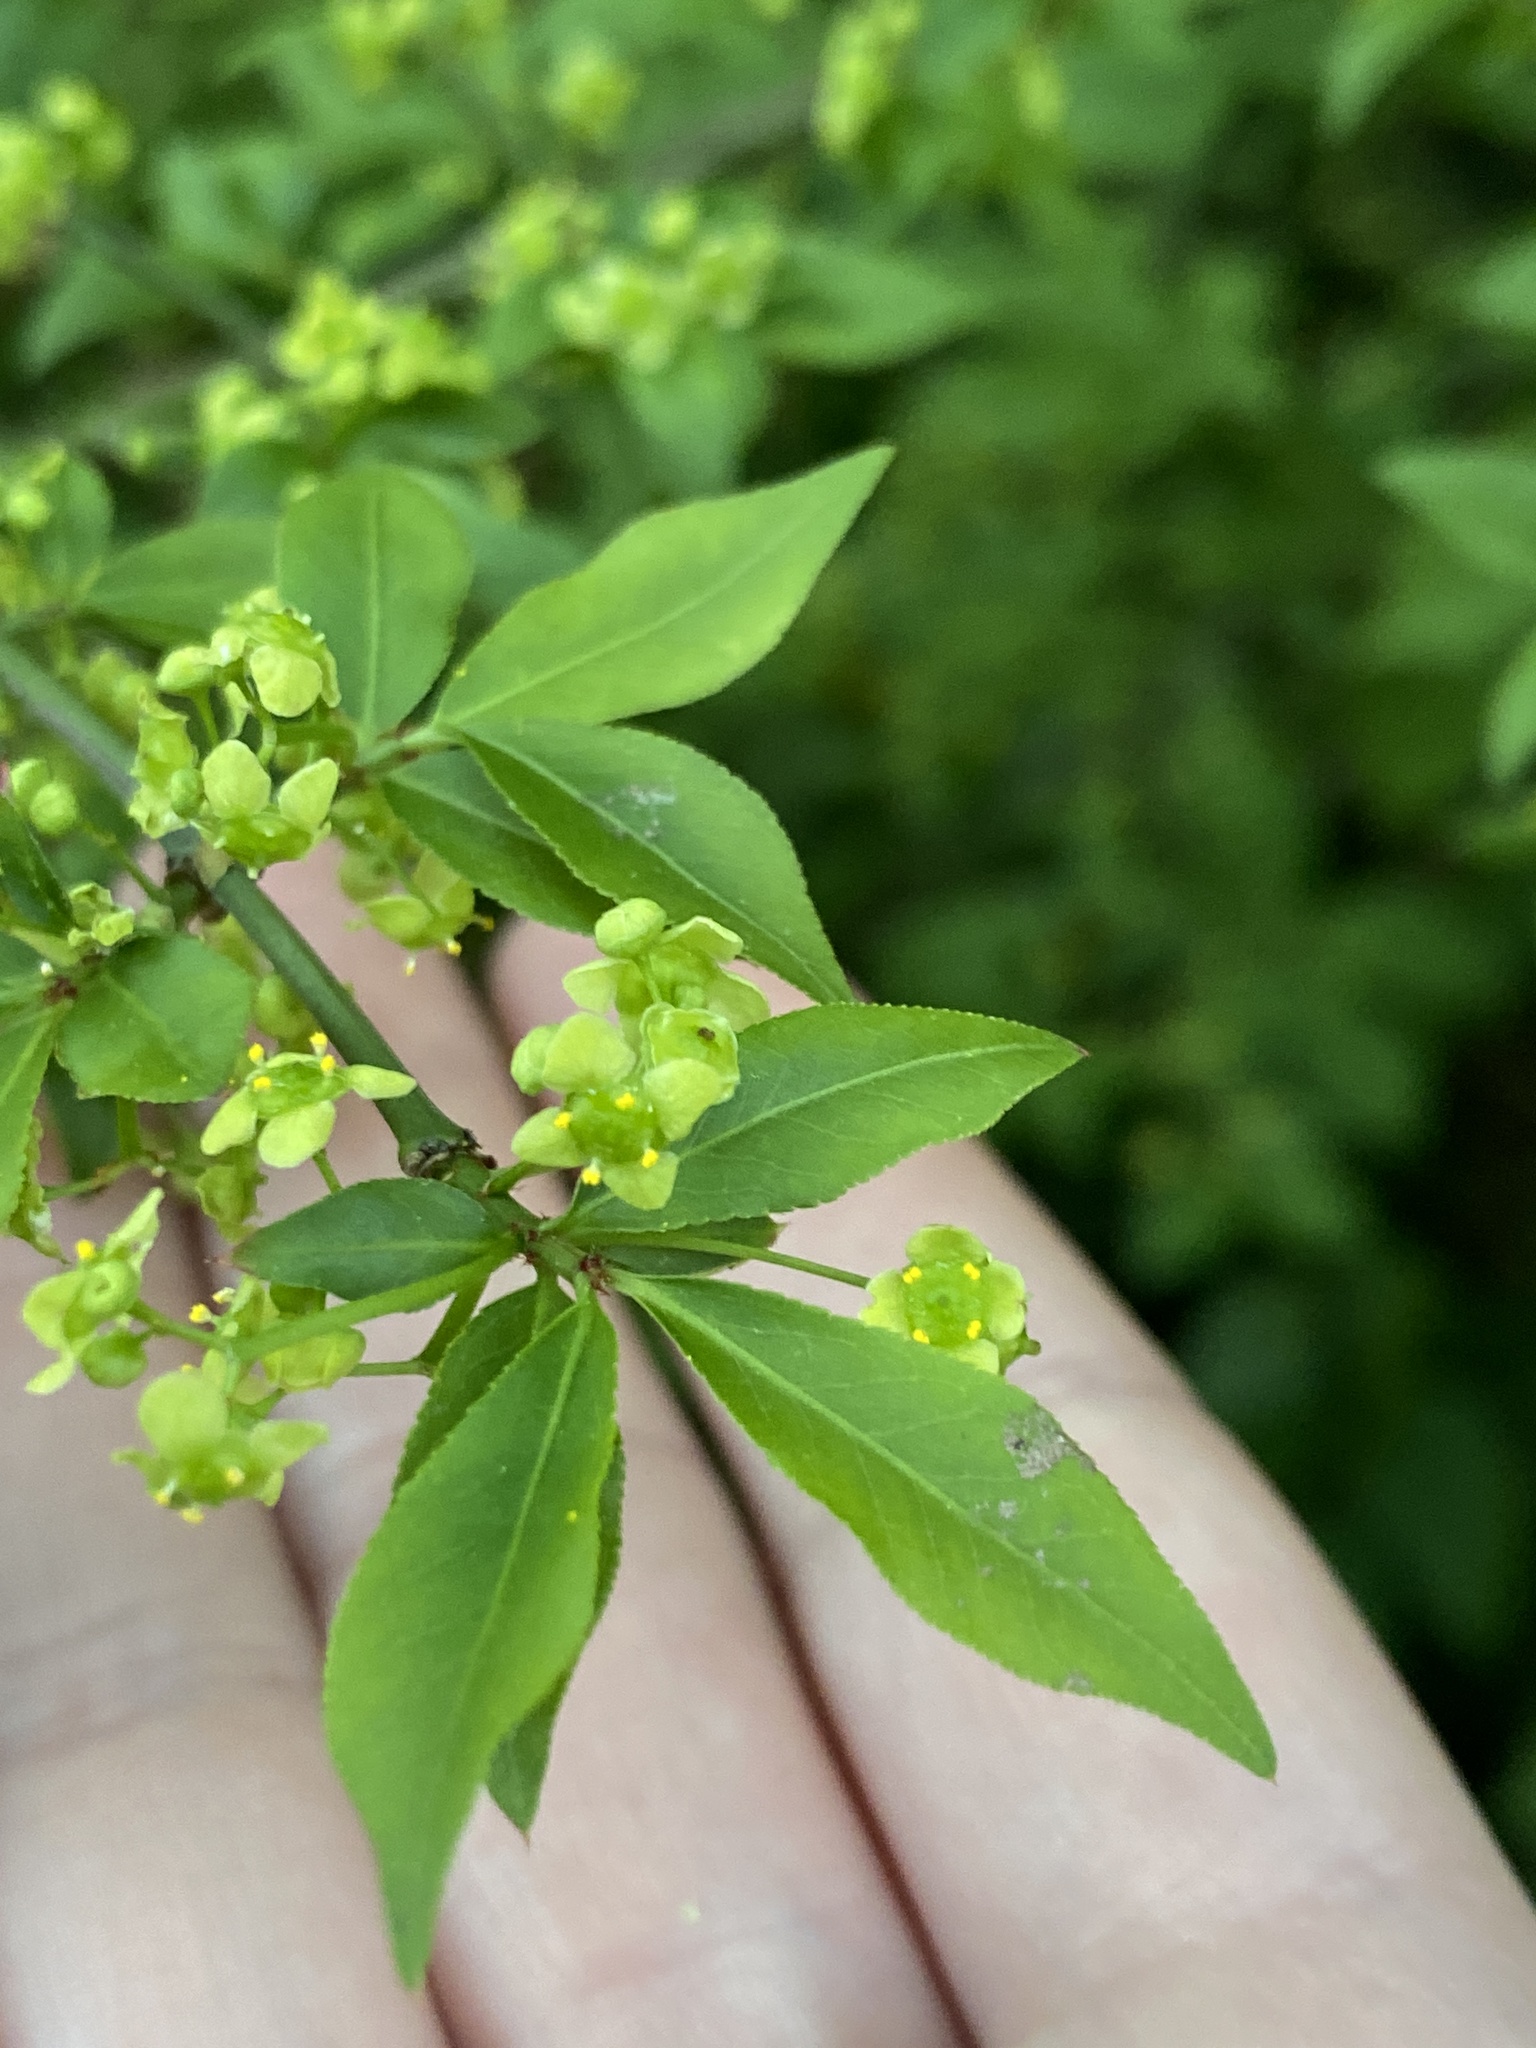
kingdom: Plantae
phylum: Tracheophyta
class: Magnoliopsida
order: Celastrales
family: Celastraceae
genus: Euonymus
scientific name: Euonymus alatus
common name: Winged euonymus
